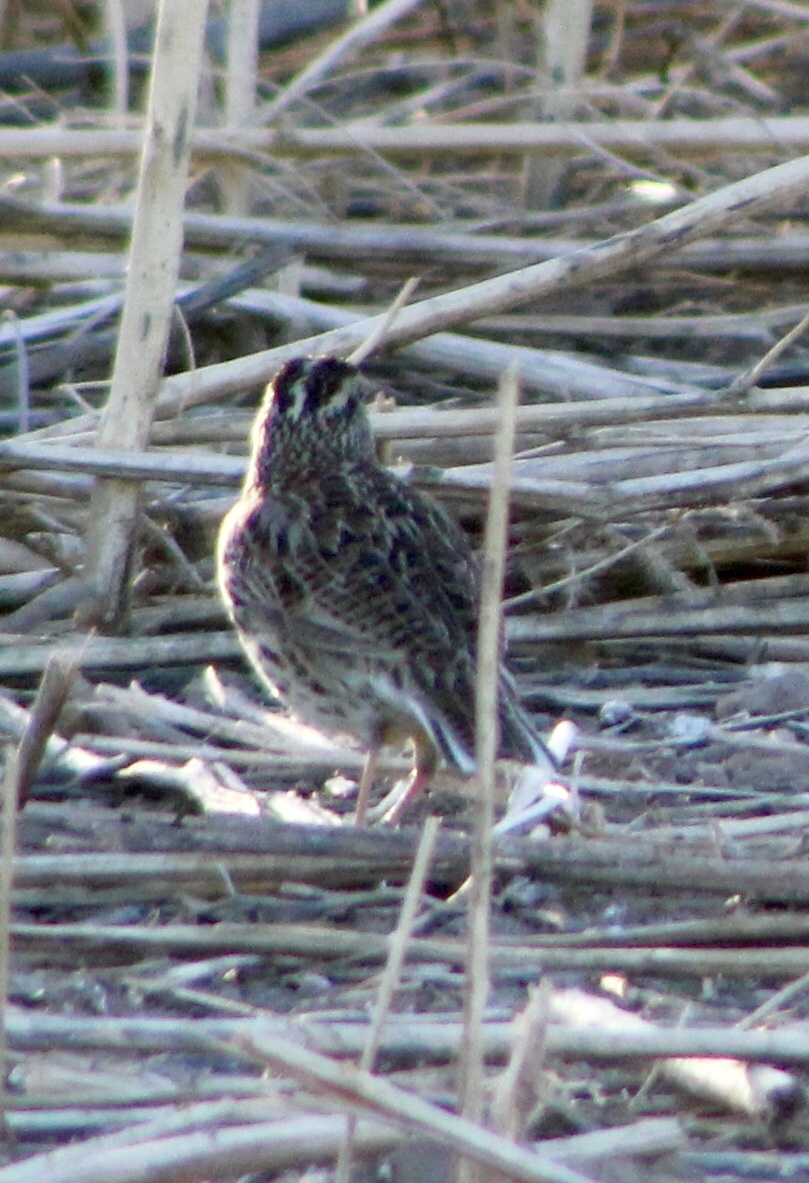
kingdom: Animalia
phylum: Chordata
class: Aves
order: Passeriformes
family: Icteridae
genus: Sturnella
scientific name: Sturnella neglecta
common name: Western meadowlark
